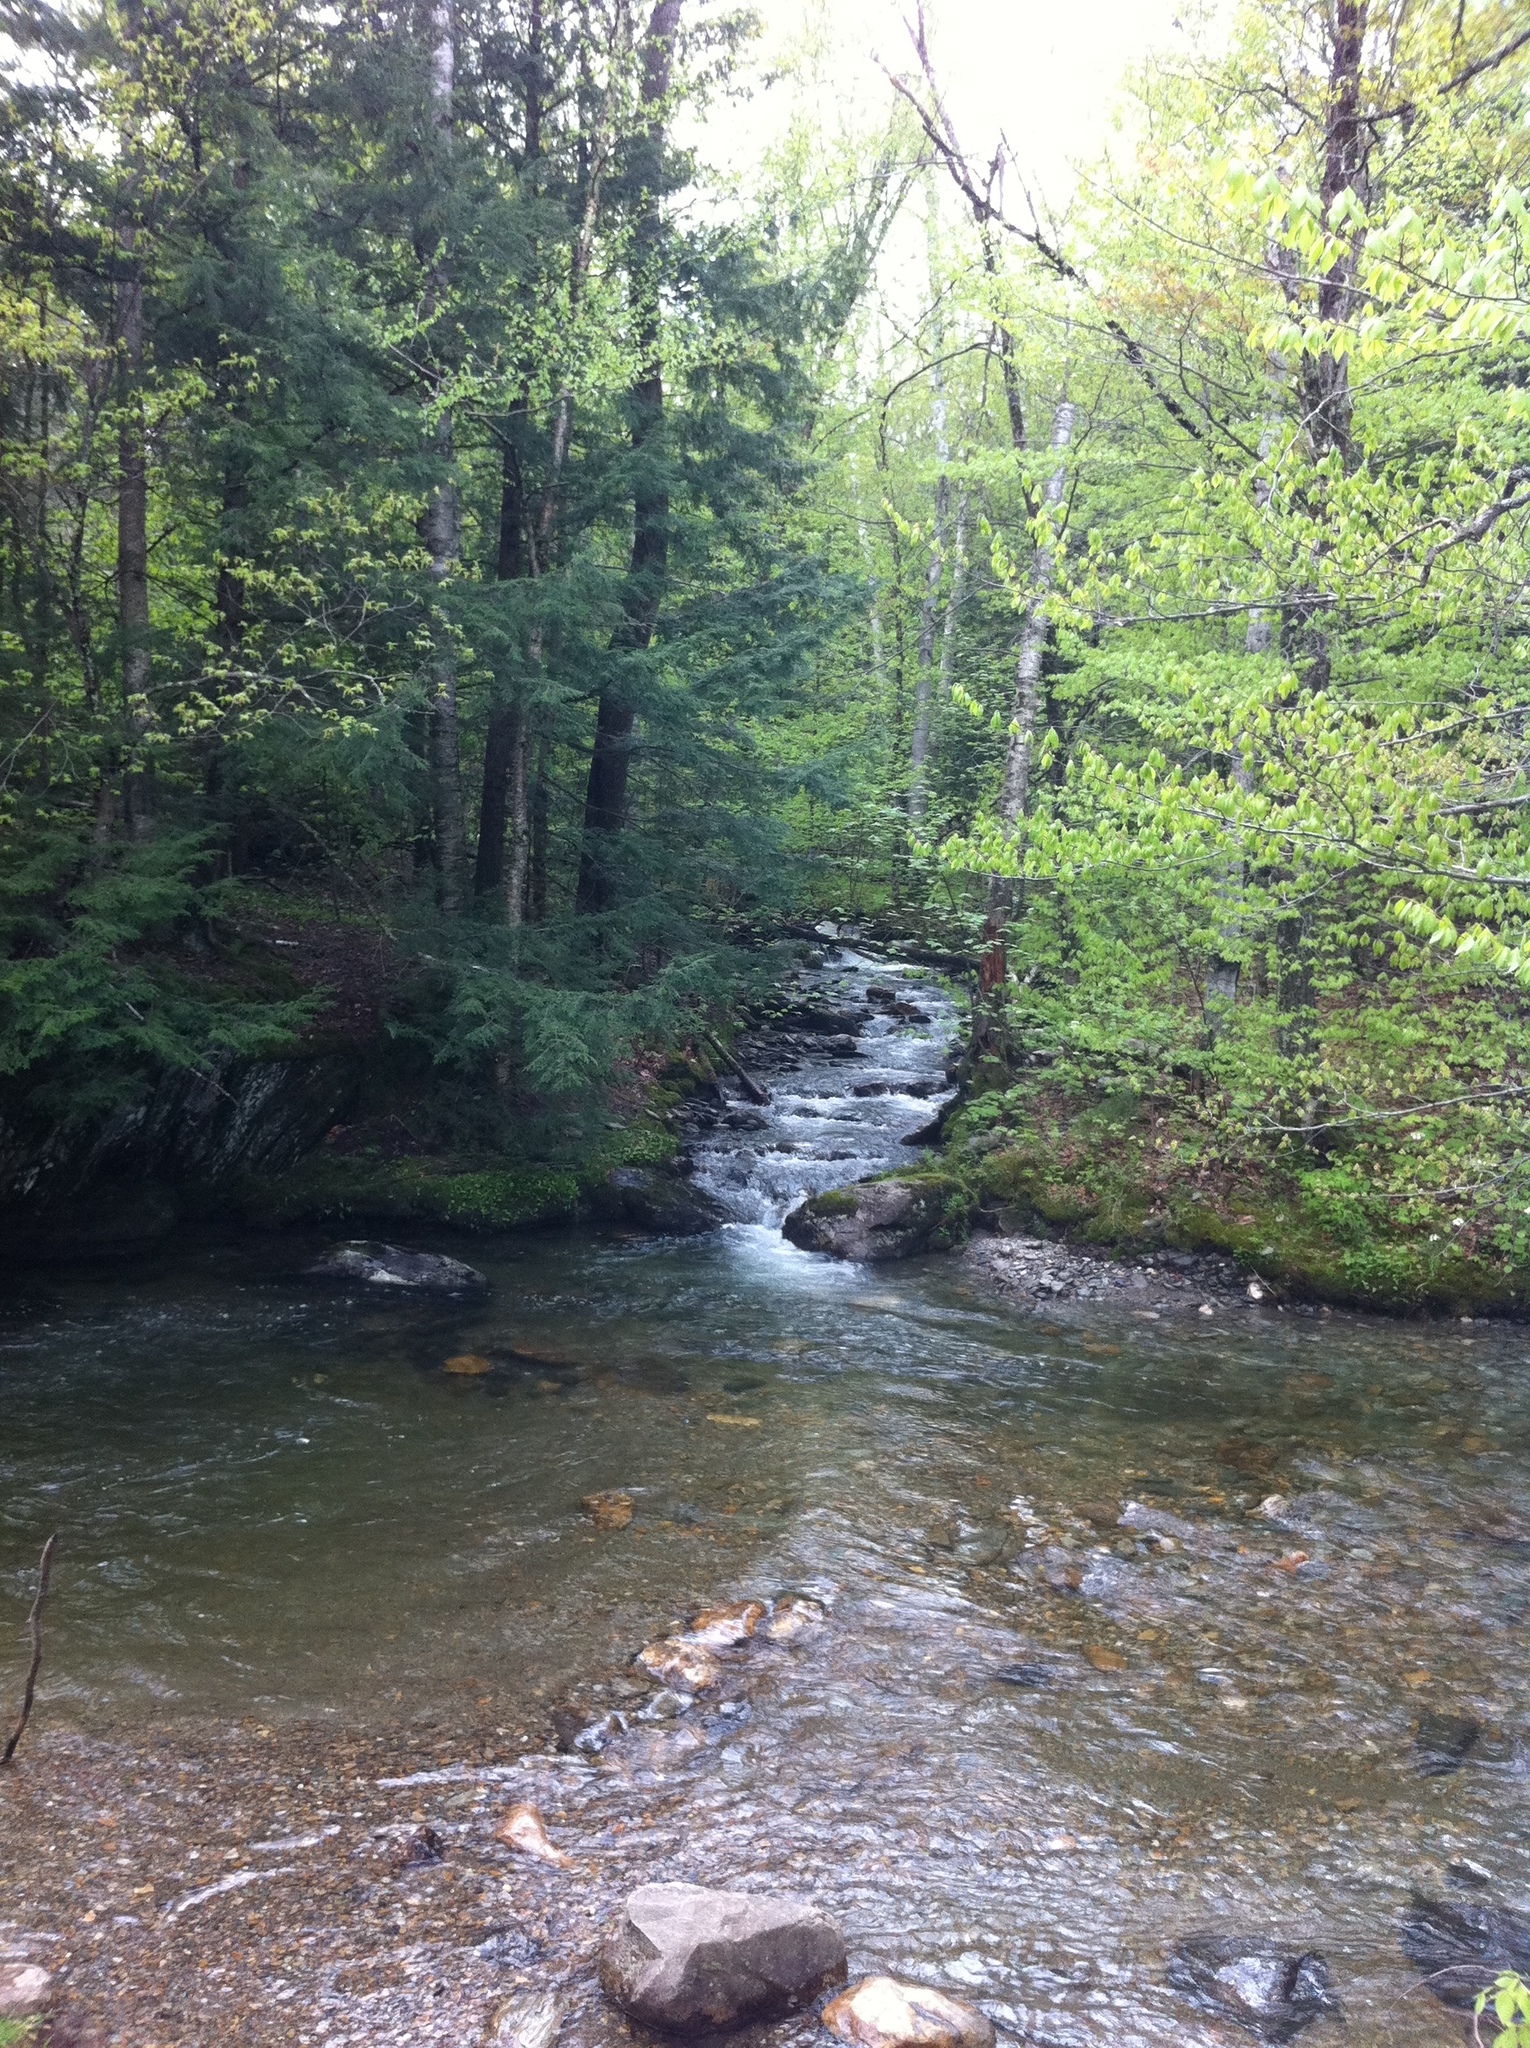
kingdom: Plantae
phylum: Tracheophyta
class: Magnoliopsida
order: Fagales
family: Betulaceae
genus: Betula
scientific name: Betula alleghaniensis
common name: Yellow birch
